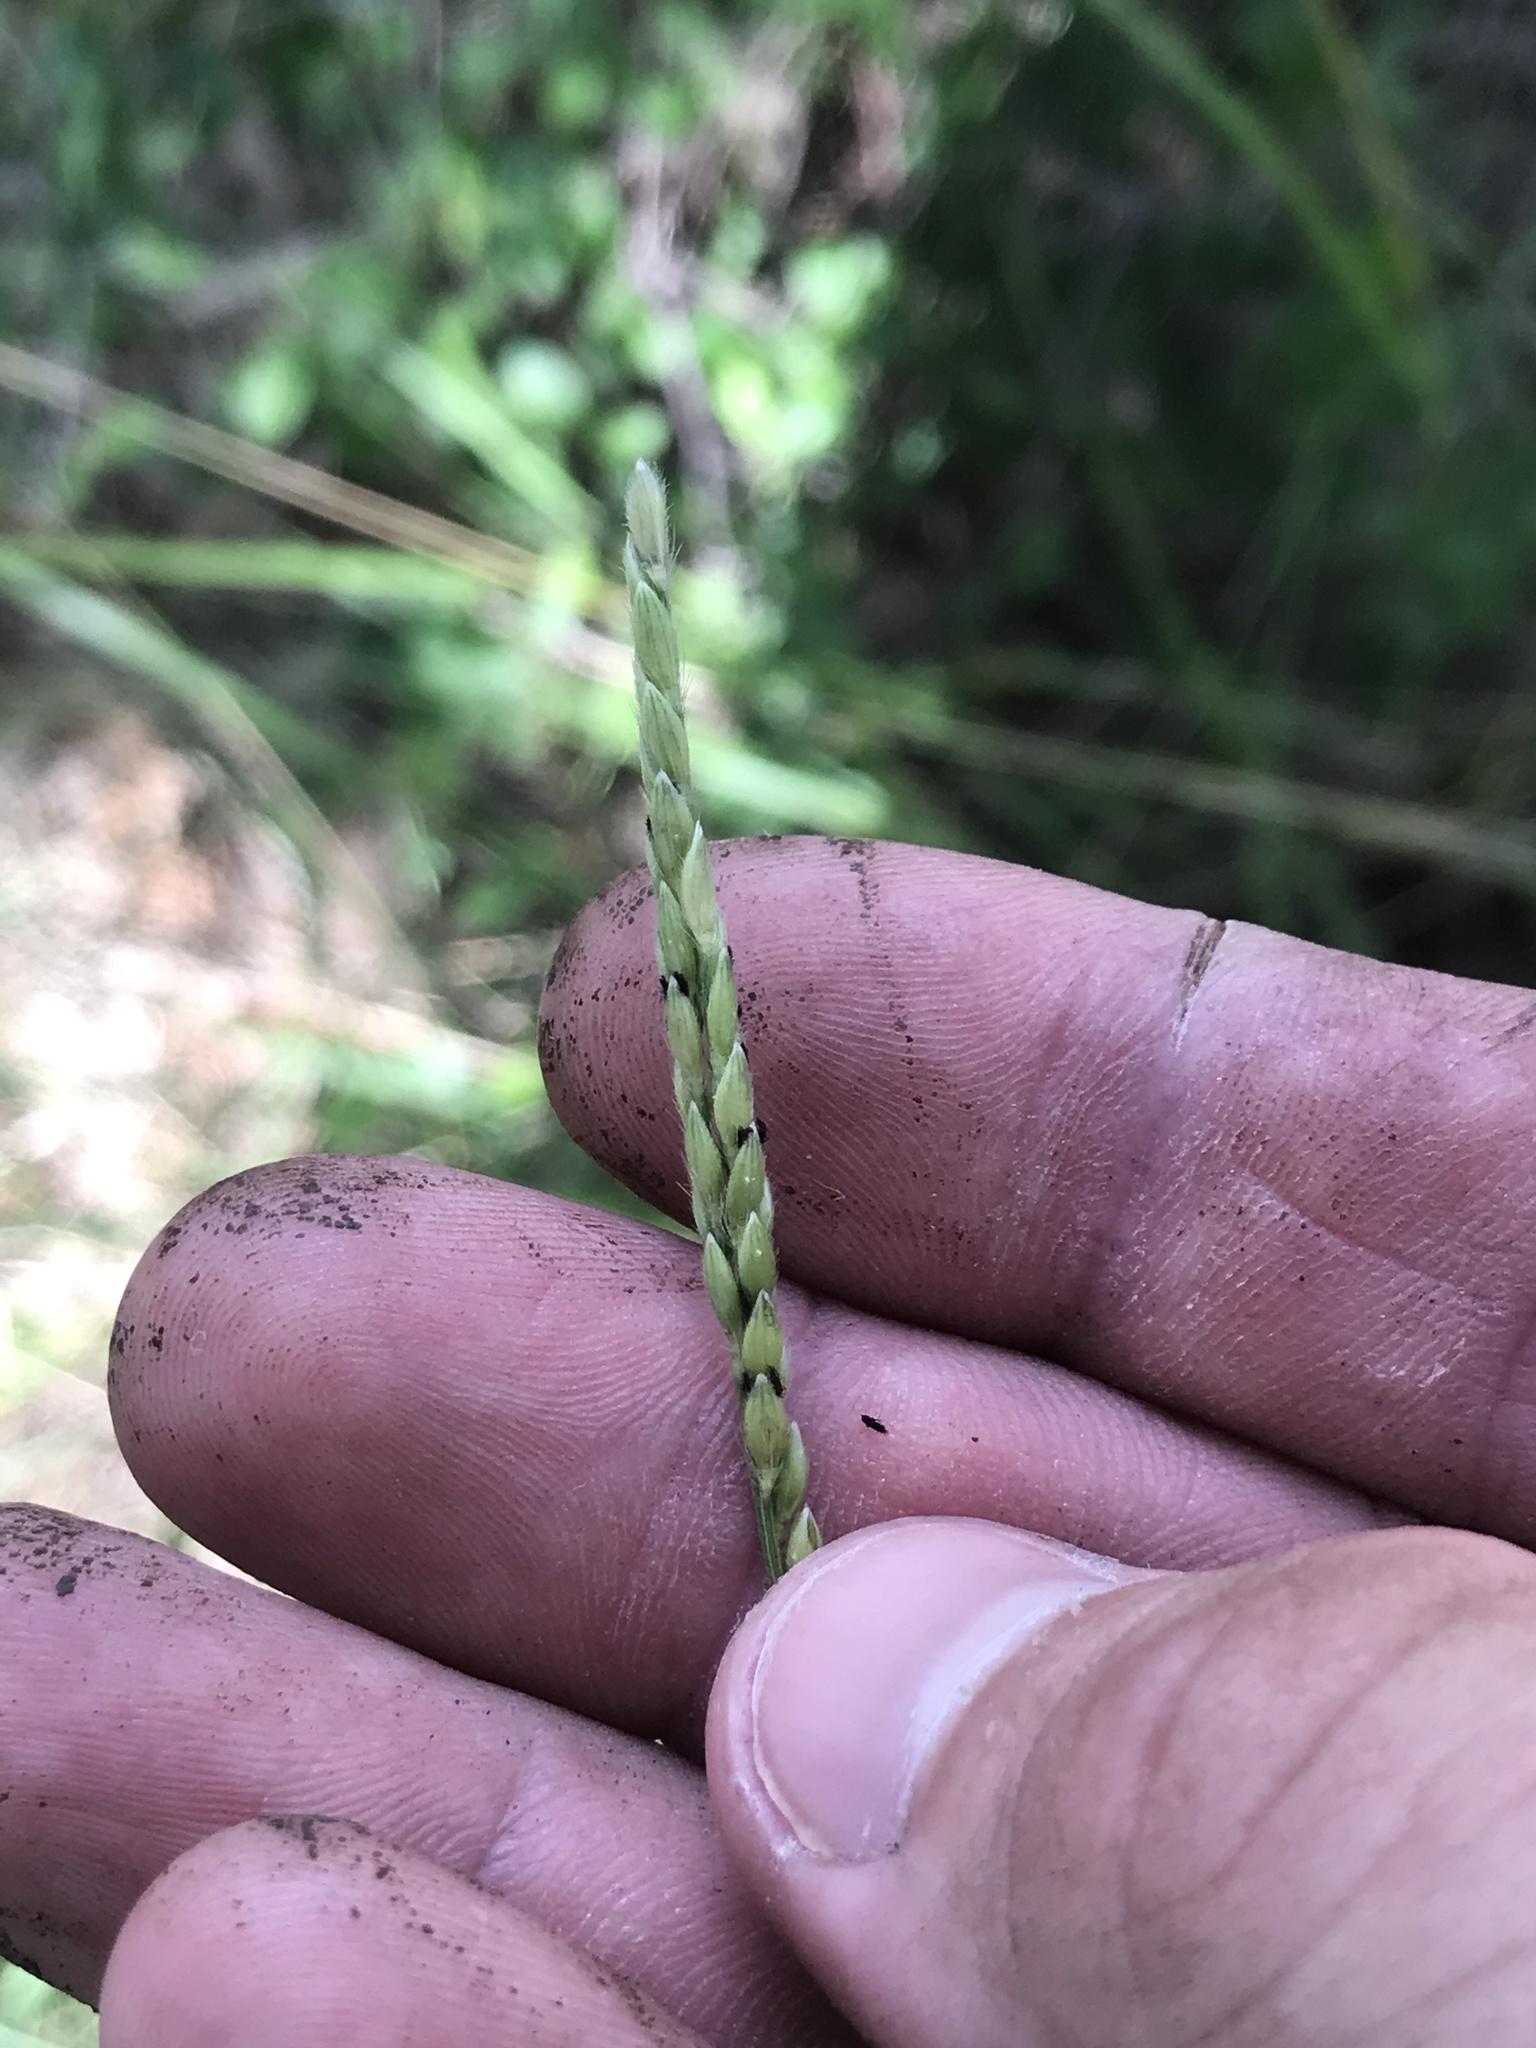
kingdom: Plantae
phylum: Tracheophyta
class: Liliopsida
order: Poales
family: Poaceae
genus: Eriochloa
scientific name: Eriochloa sericea
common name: Texas cup grass
